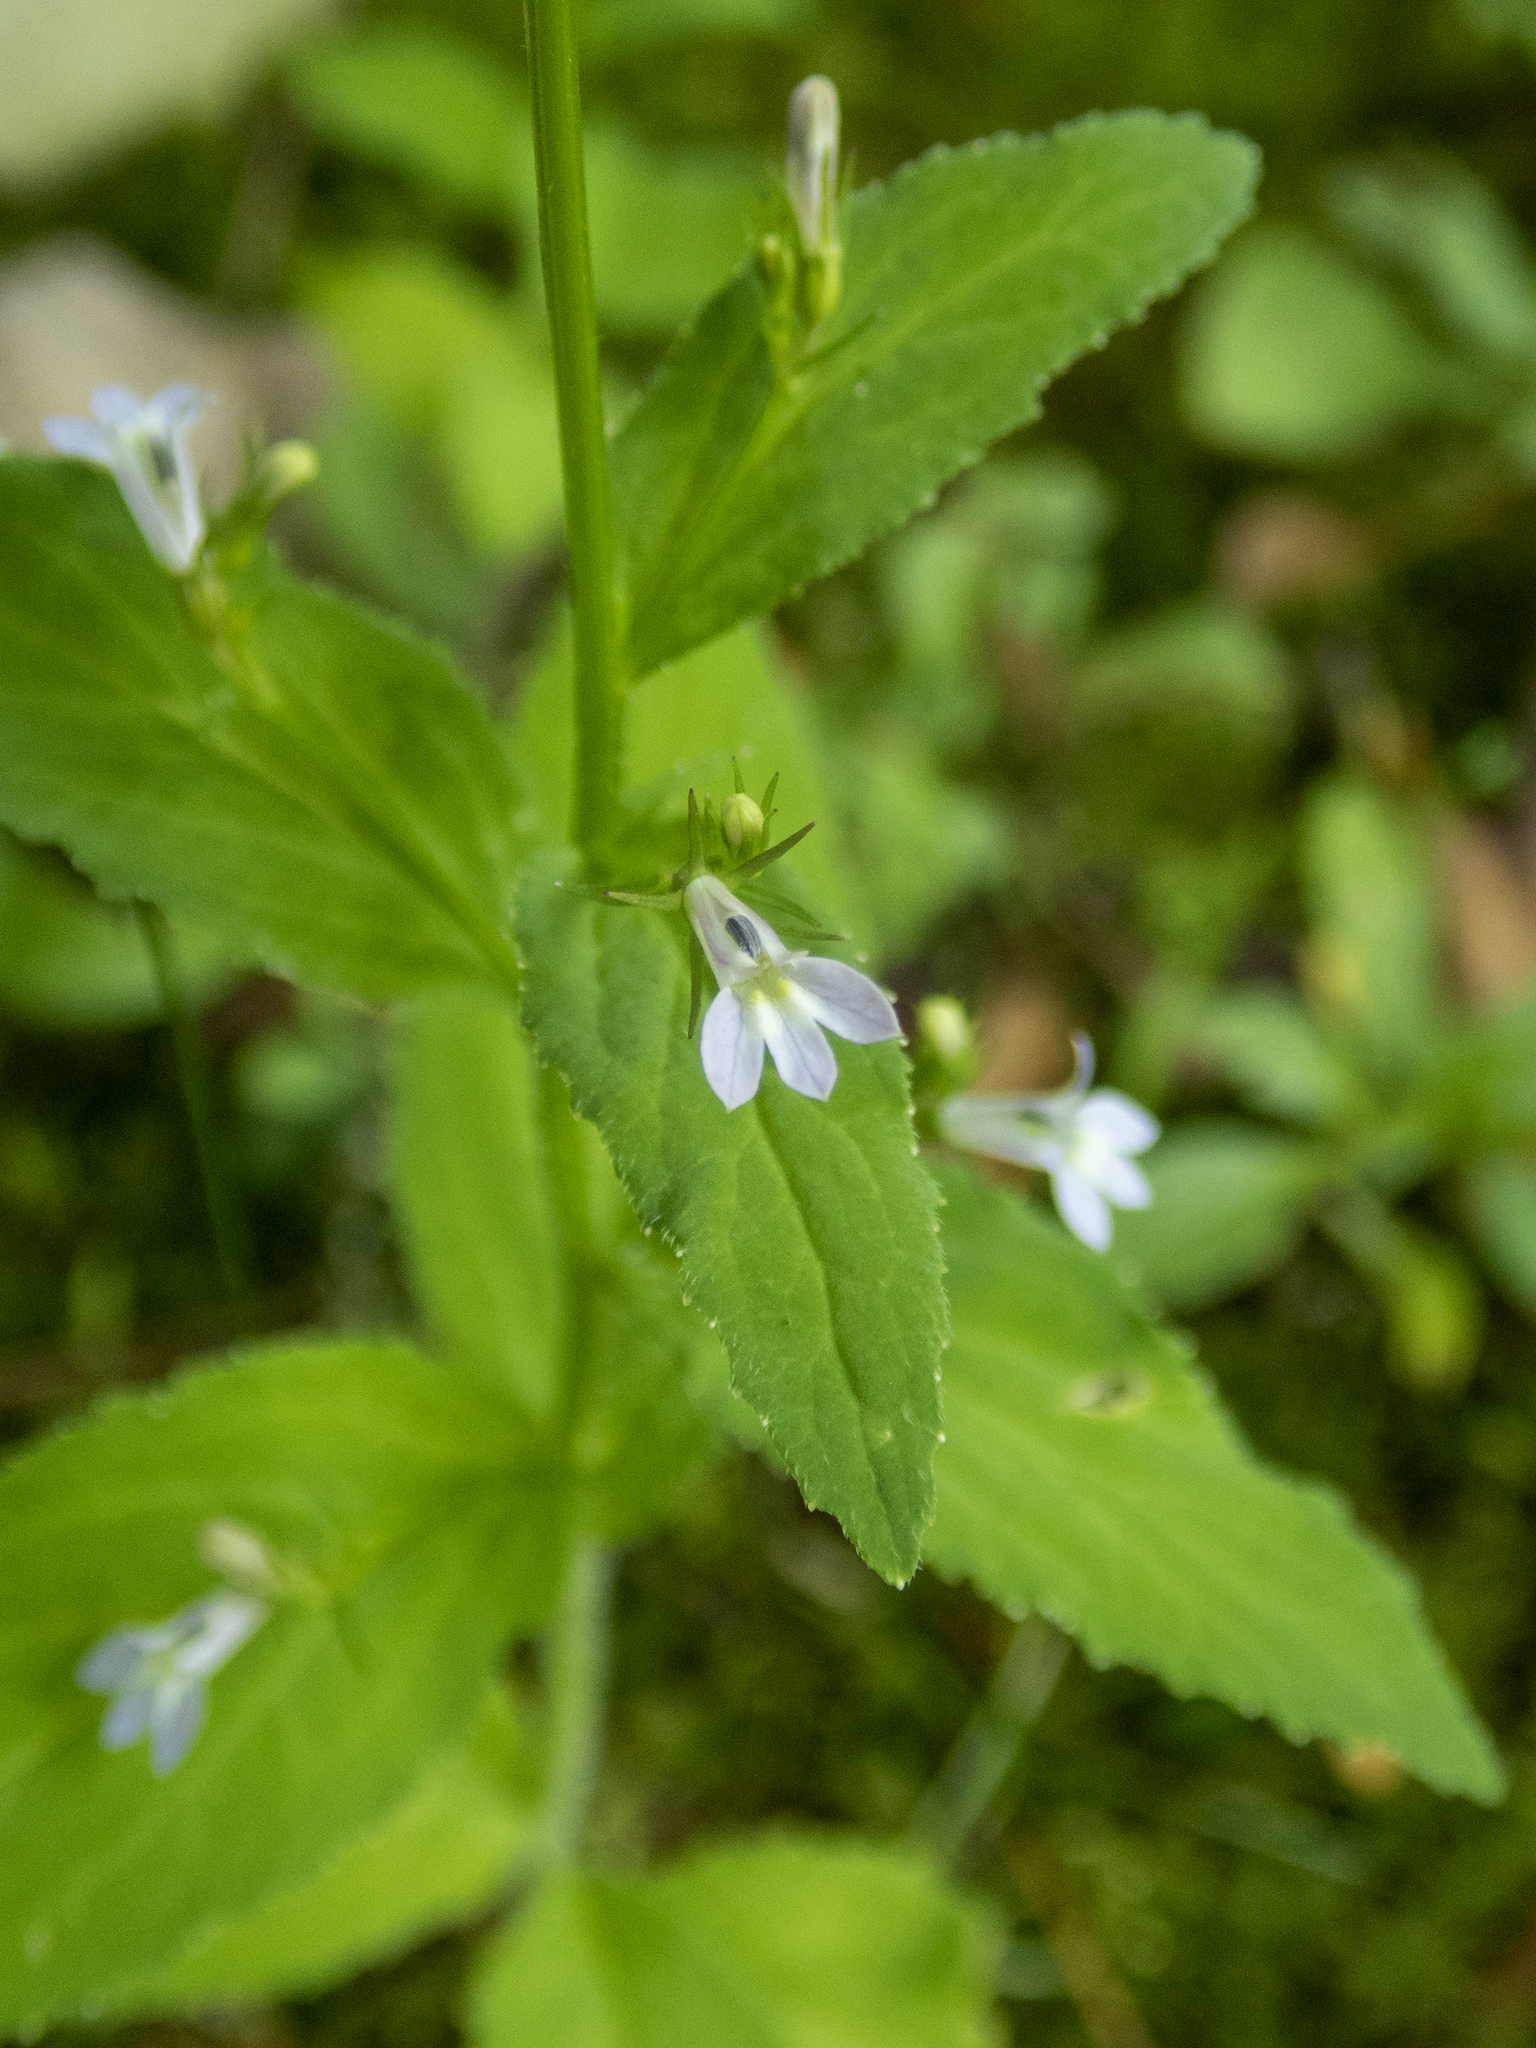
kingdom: Plantae
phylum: Tracheophyta
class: Magnoliopsida
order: Asterales
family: Campanulaceae
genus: Lobelia
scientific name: Lobelia inflata
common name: Indian tobacco
